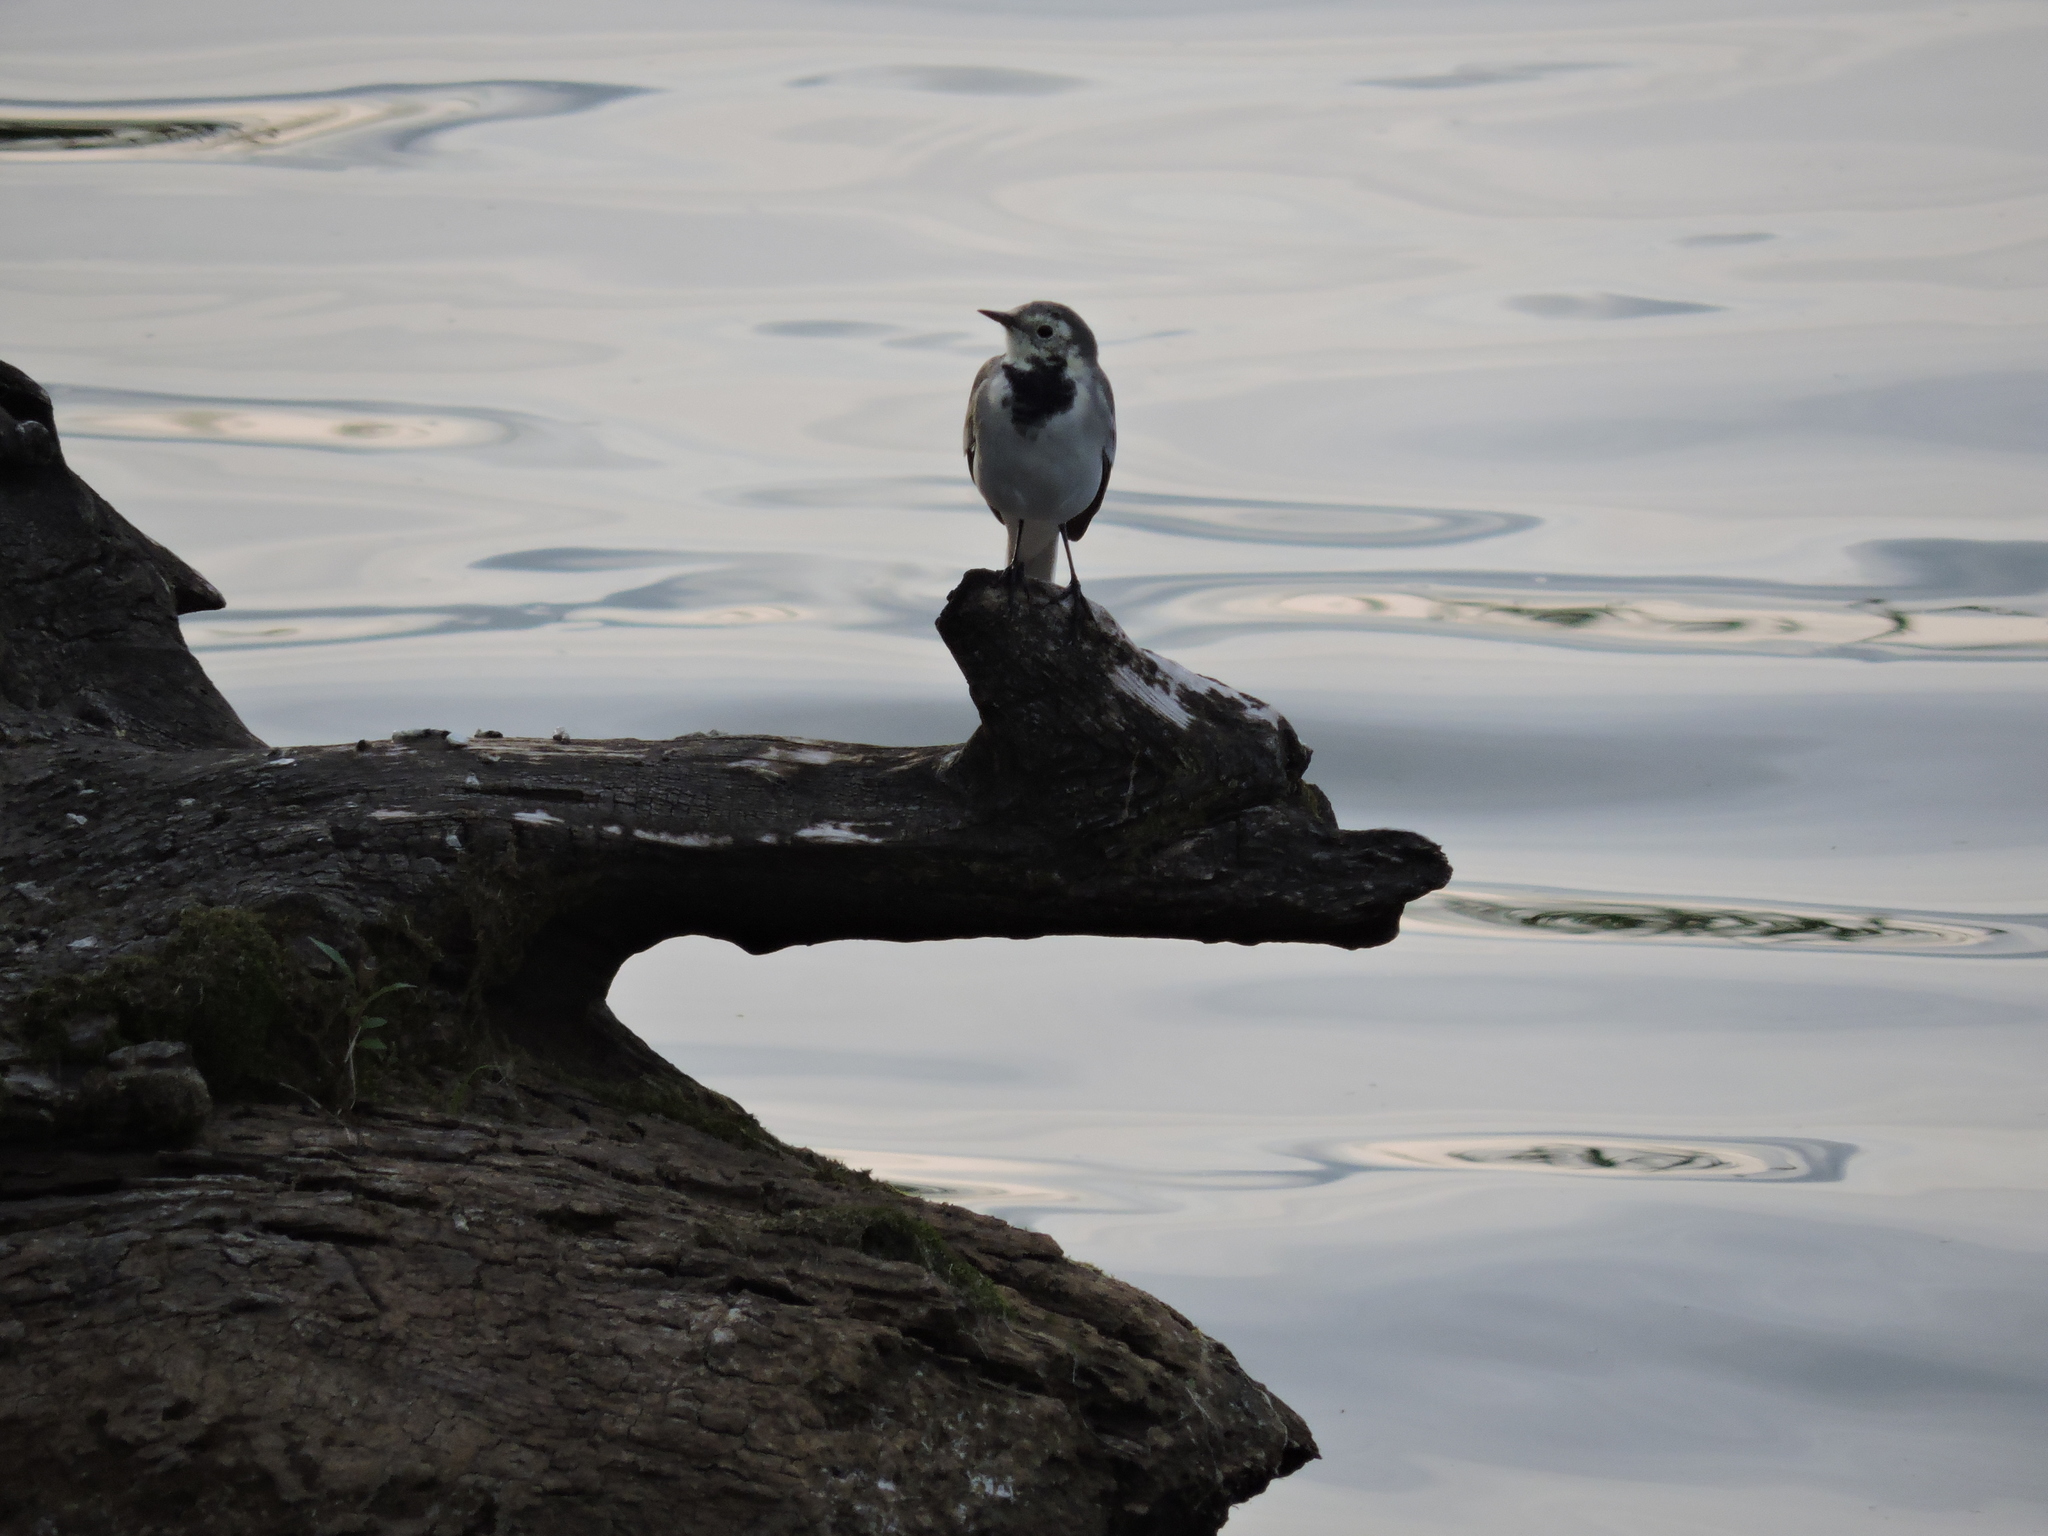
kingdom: Animalia
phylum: Chordata
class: Aves
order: Passeriformes
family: Motacillidae
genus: Motacilla
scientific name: Motacilla alba
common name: White wagtail
